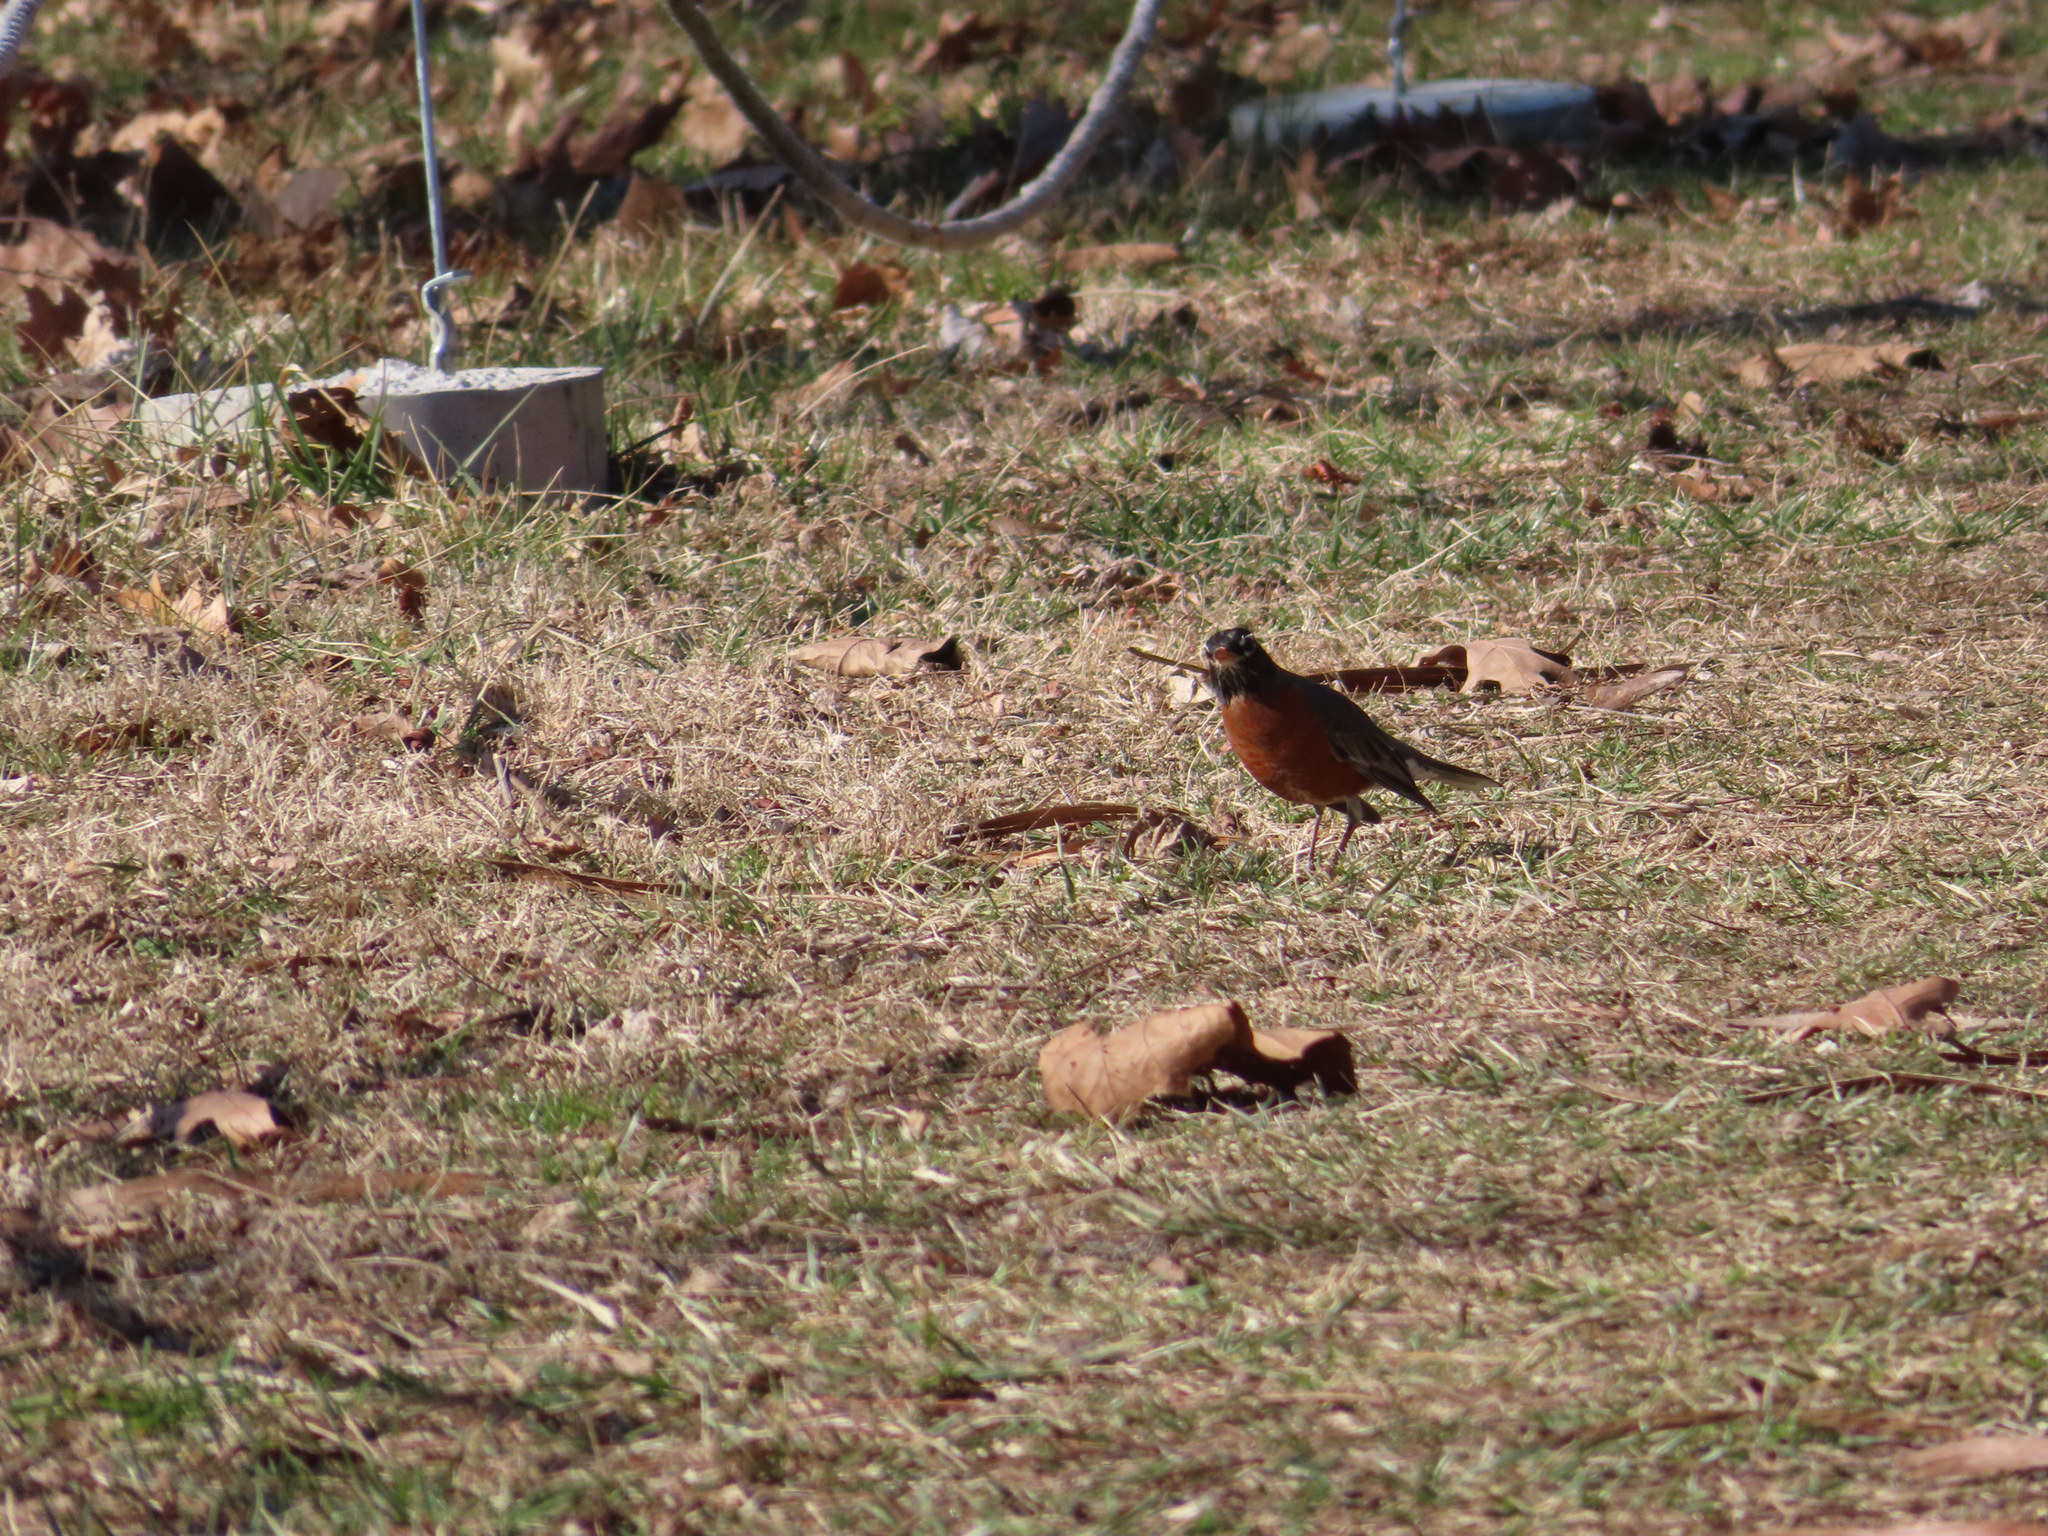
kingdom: Animalia
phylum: Chordata
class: Aves
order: Passeriformes
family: Turdidae
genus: Turdus
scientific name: Turdus migratorius
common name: American robin
